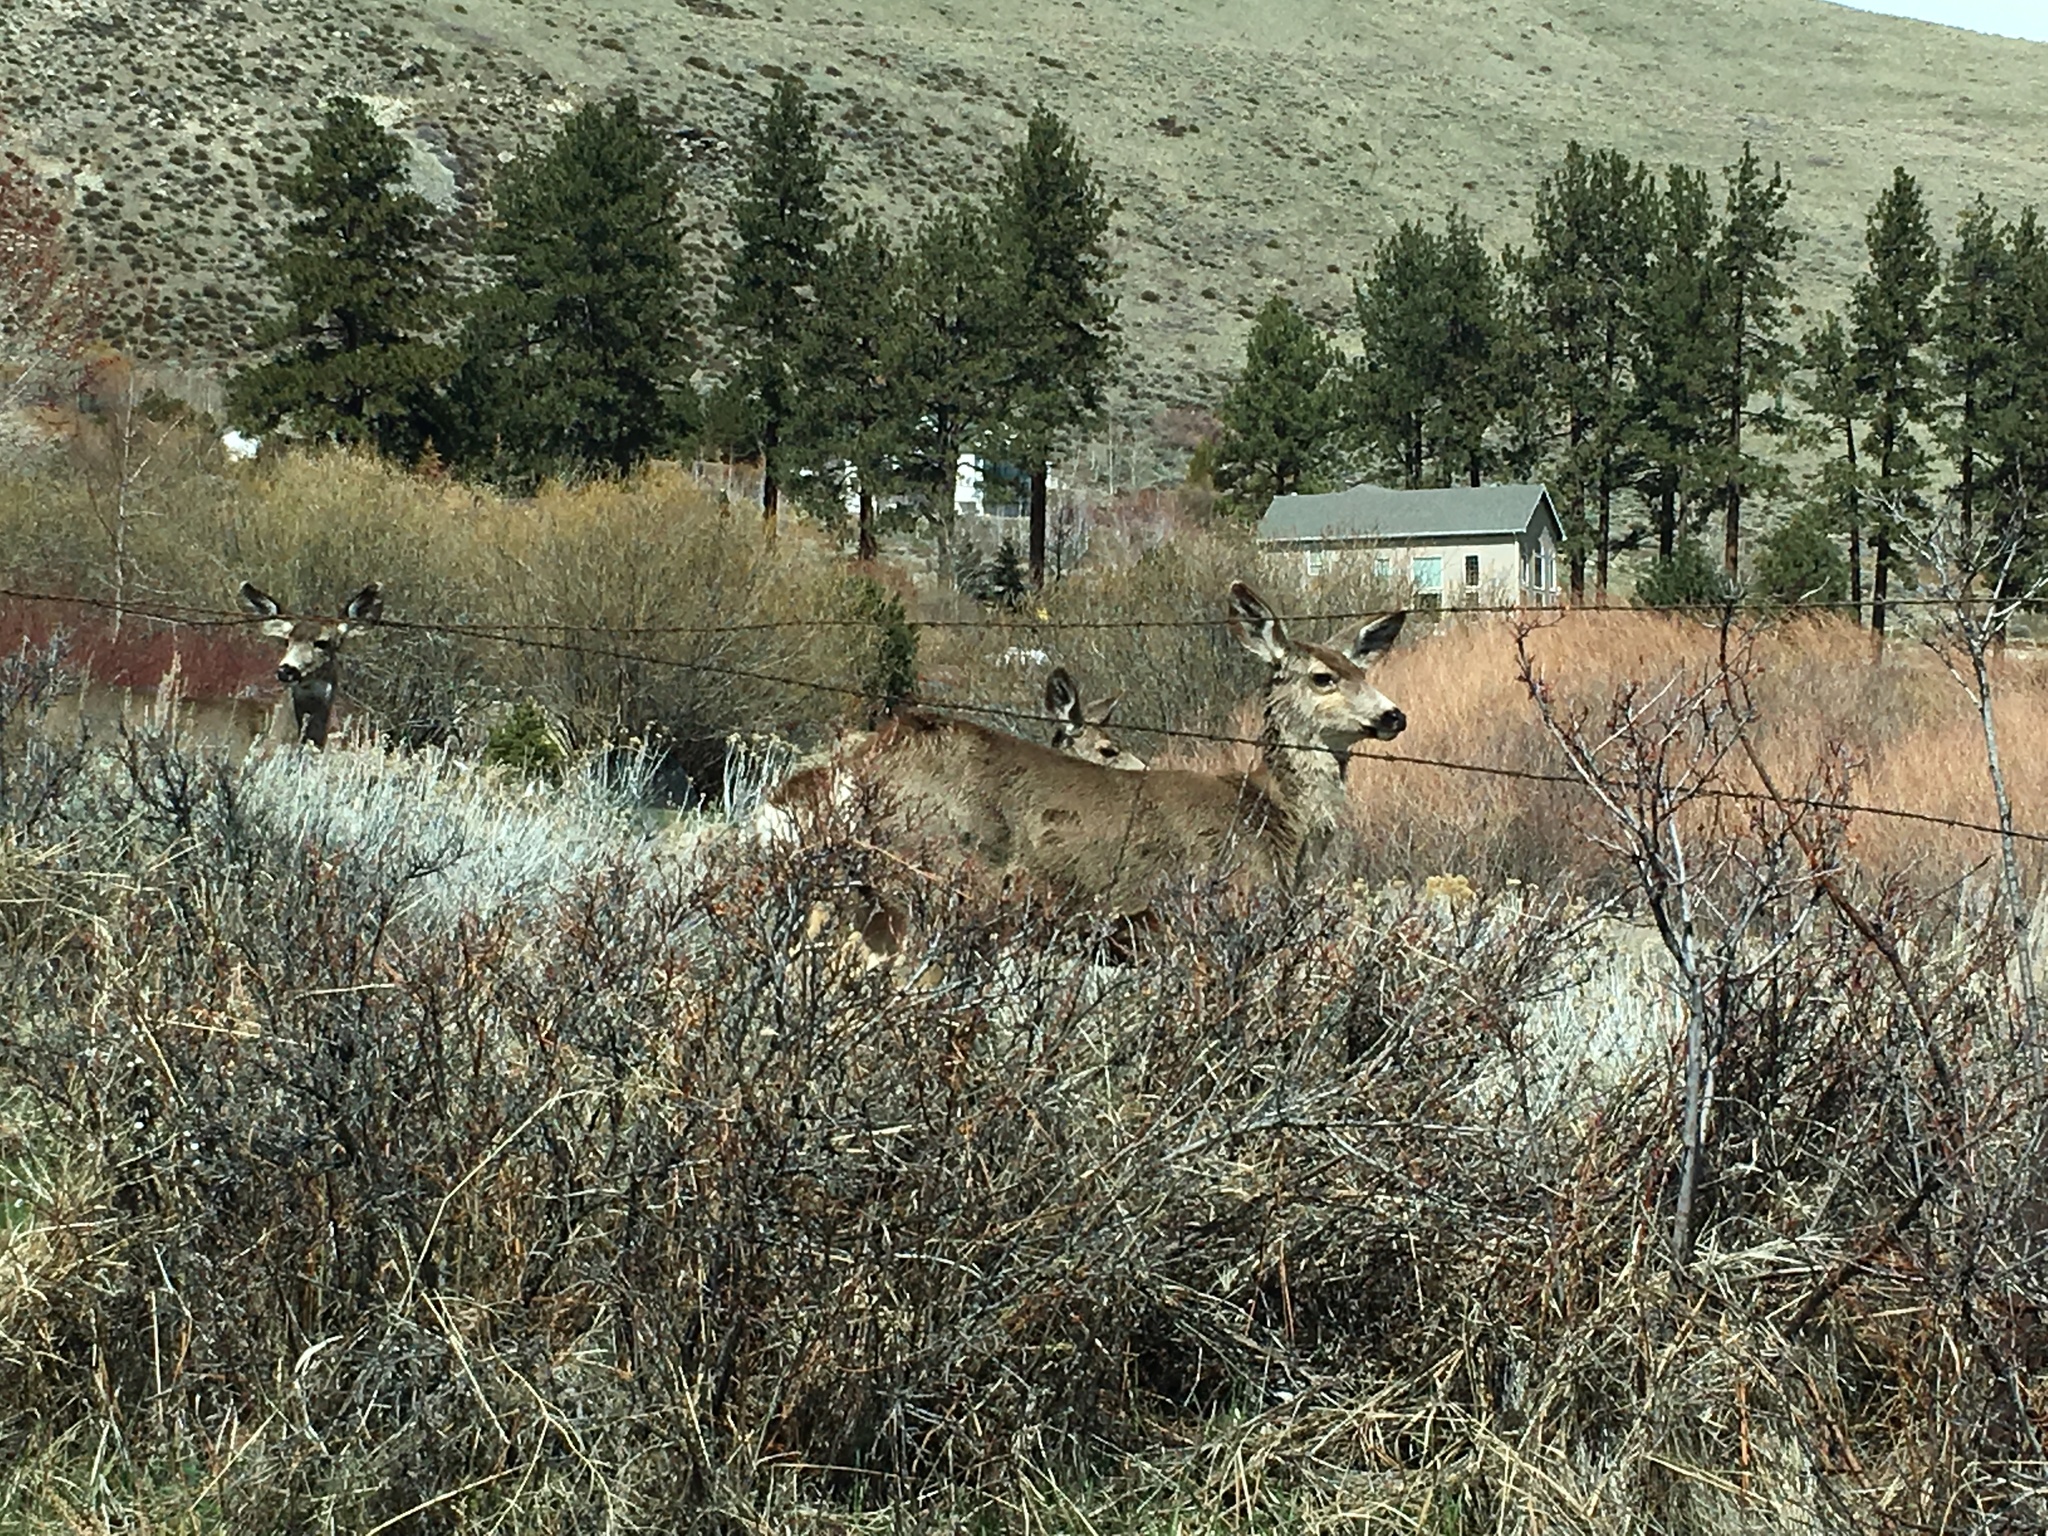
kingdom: Animalia
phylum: Chordata
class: Mammalia
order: Artiodactyla
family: Cervidae
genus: Odocoileus
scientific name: Odocoileus hemionus
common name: Mule deer
